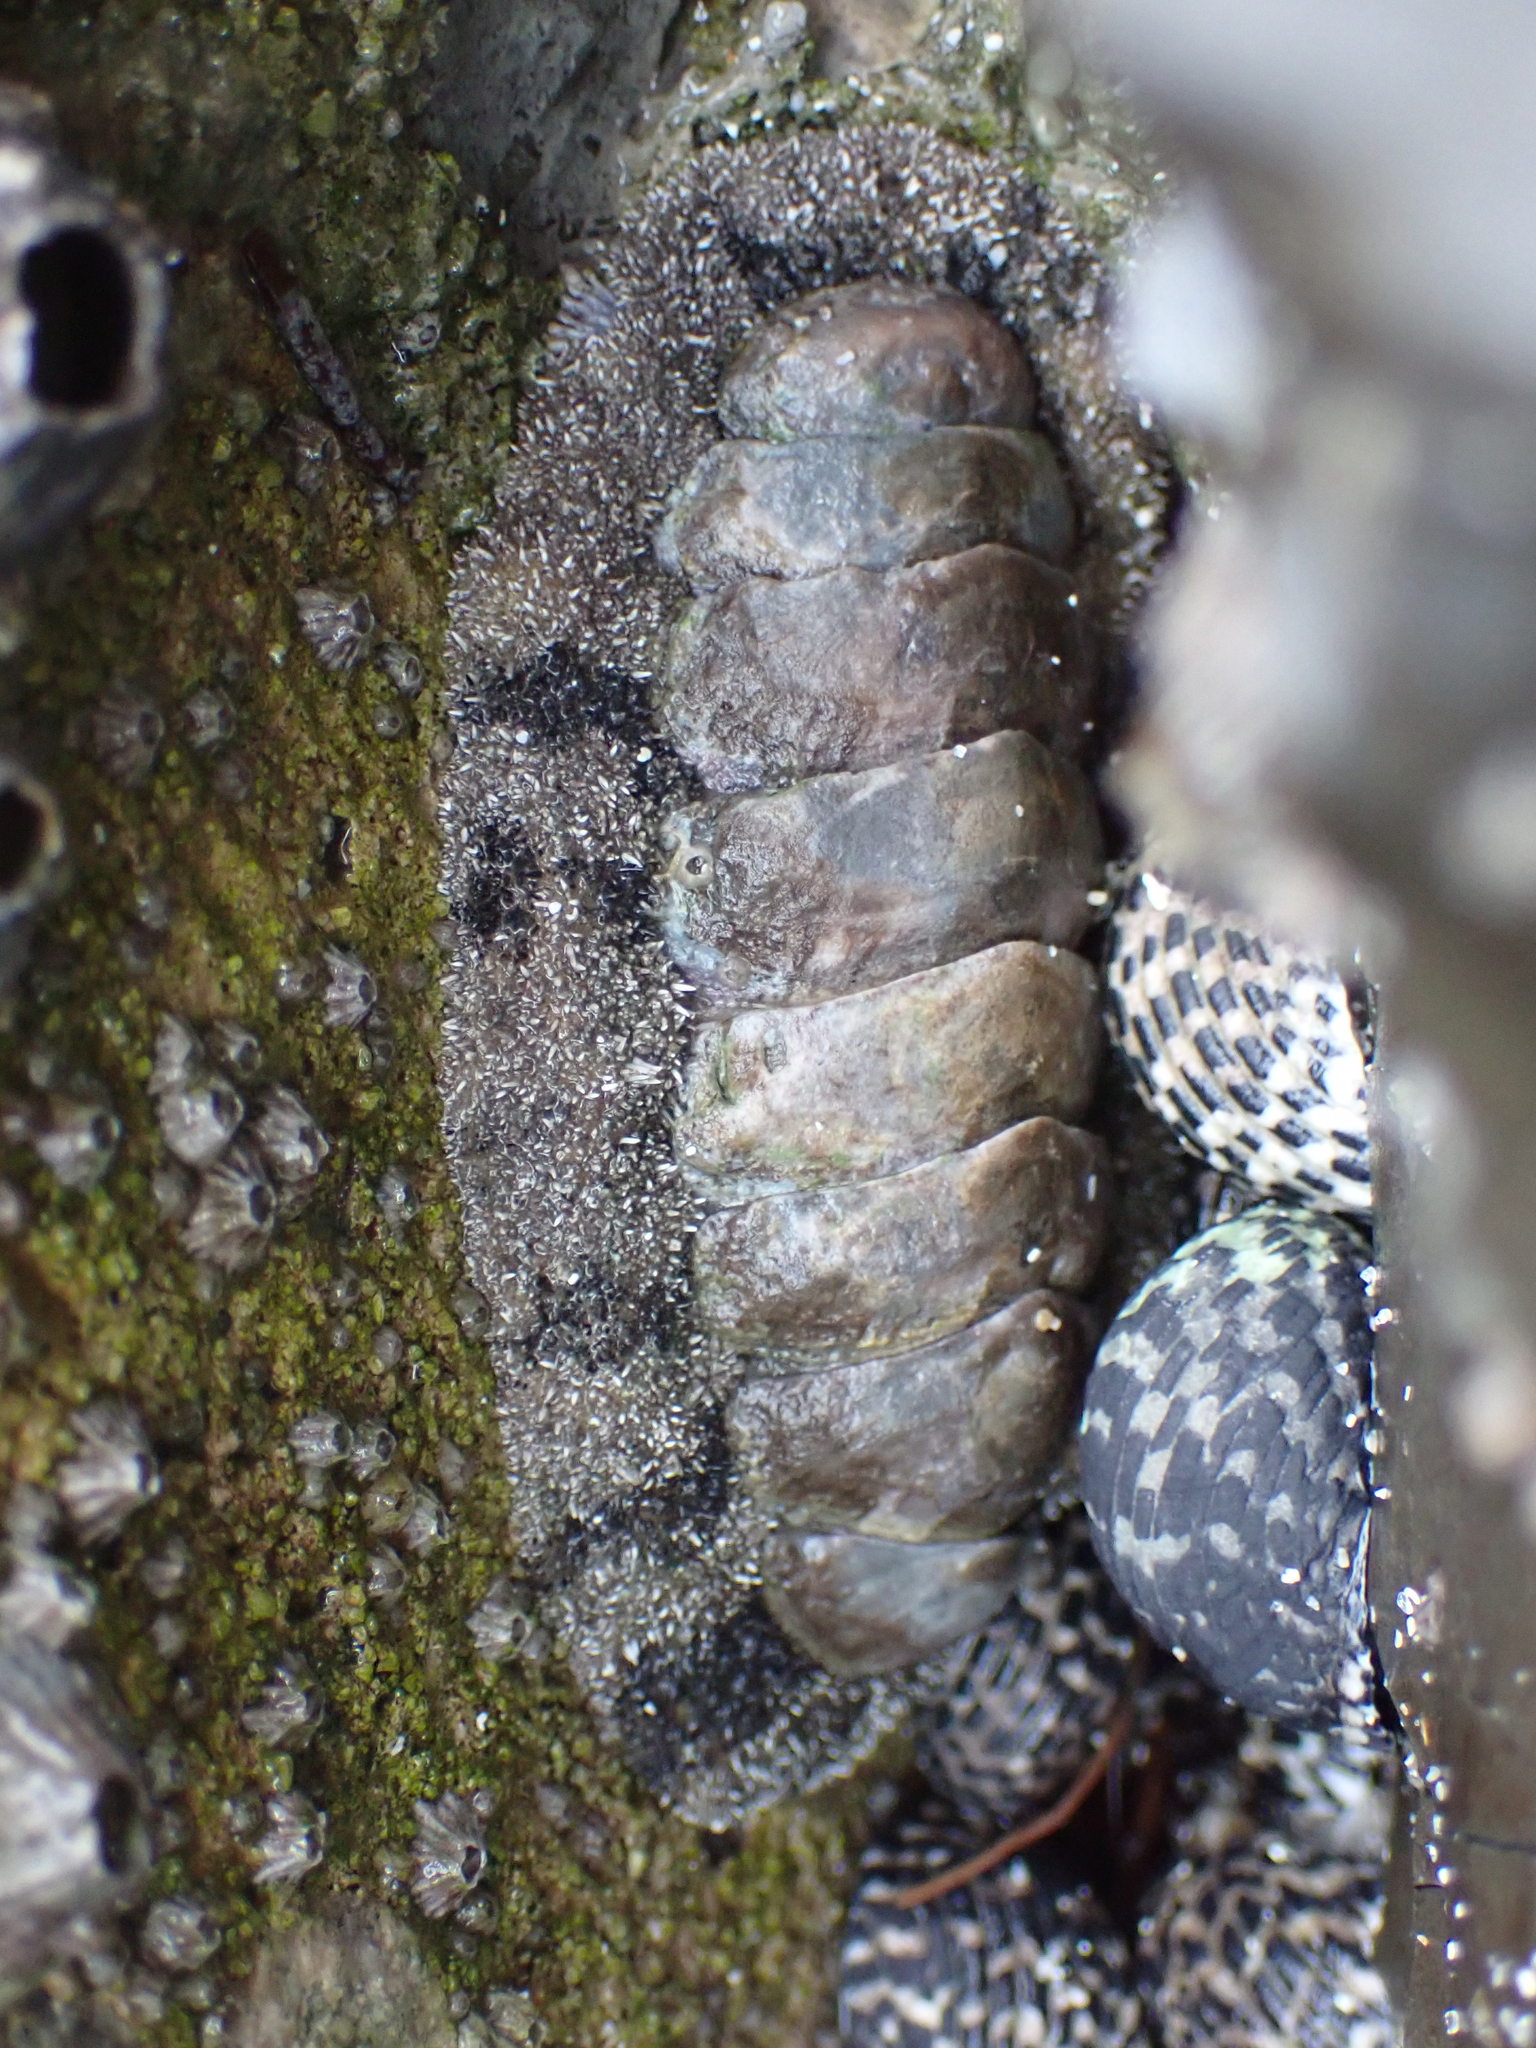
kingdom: Animalia
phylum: Mollusca
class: Polyplacophora
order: Chitonida
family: Chitonidae
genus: Acanthopleura
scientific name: Acanthopleura granulata
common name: West indian fuzzy chiton
